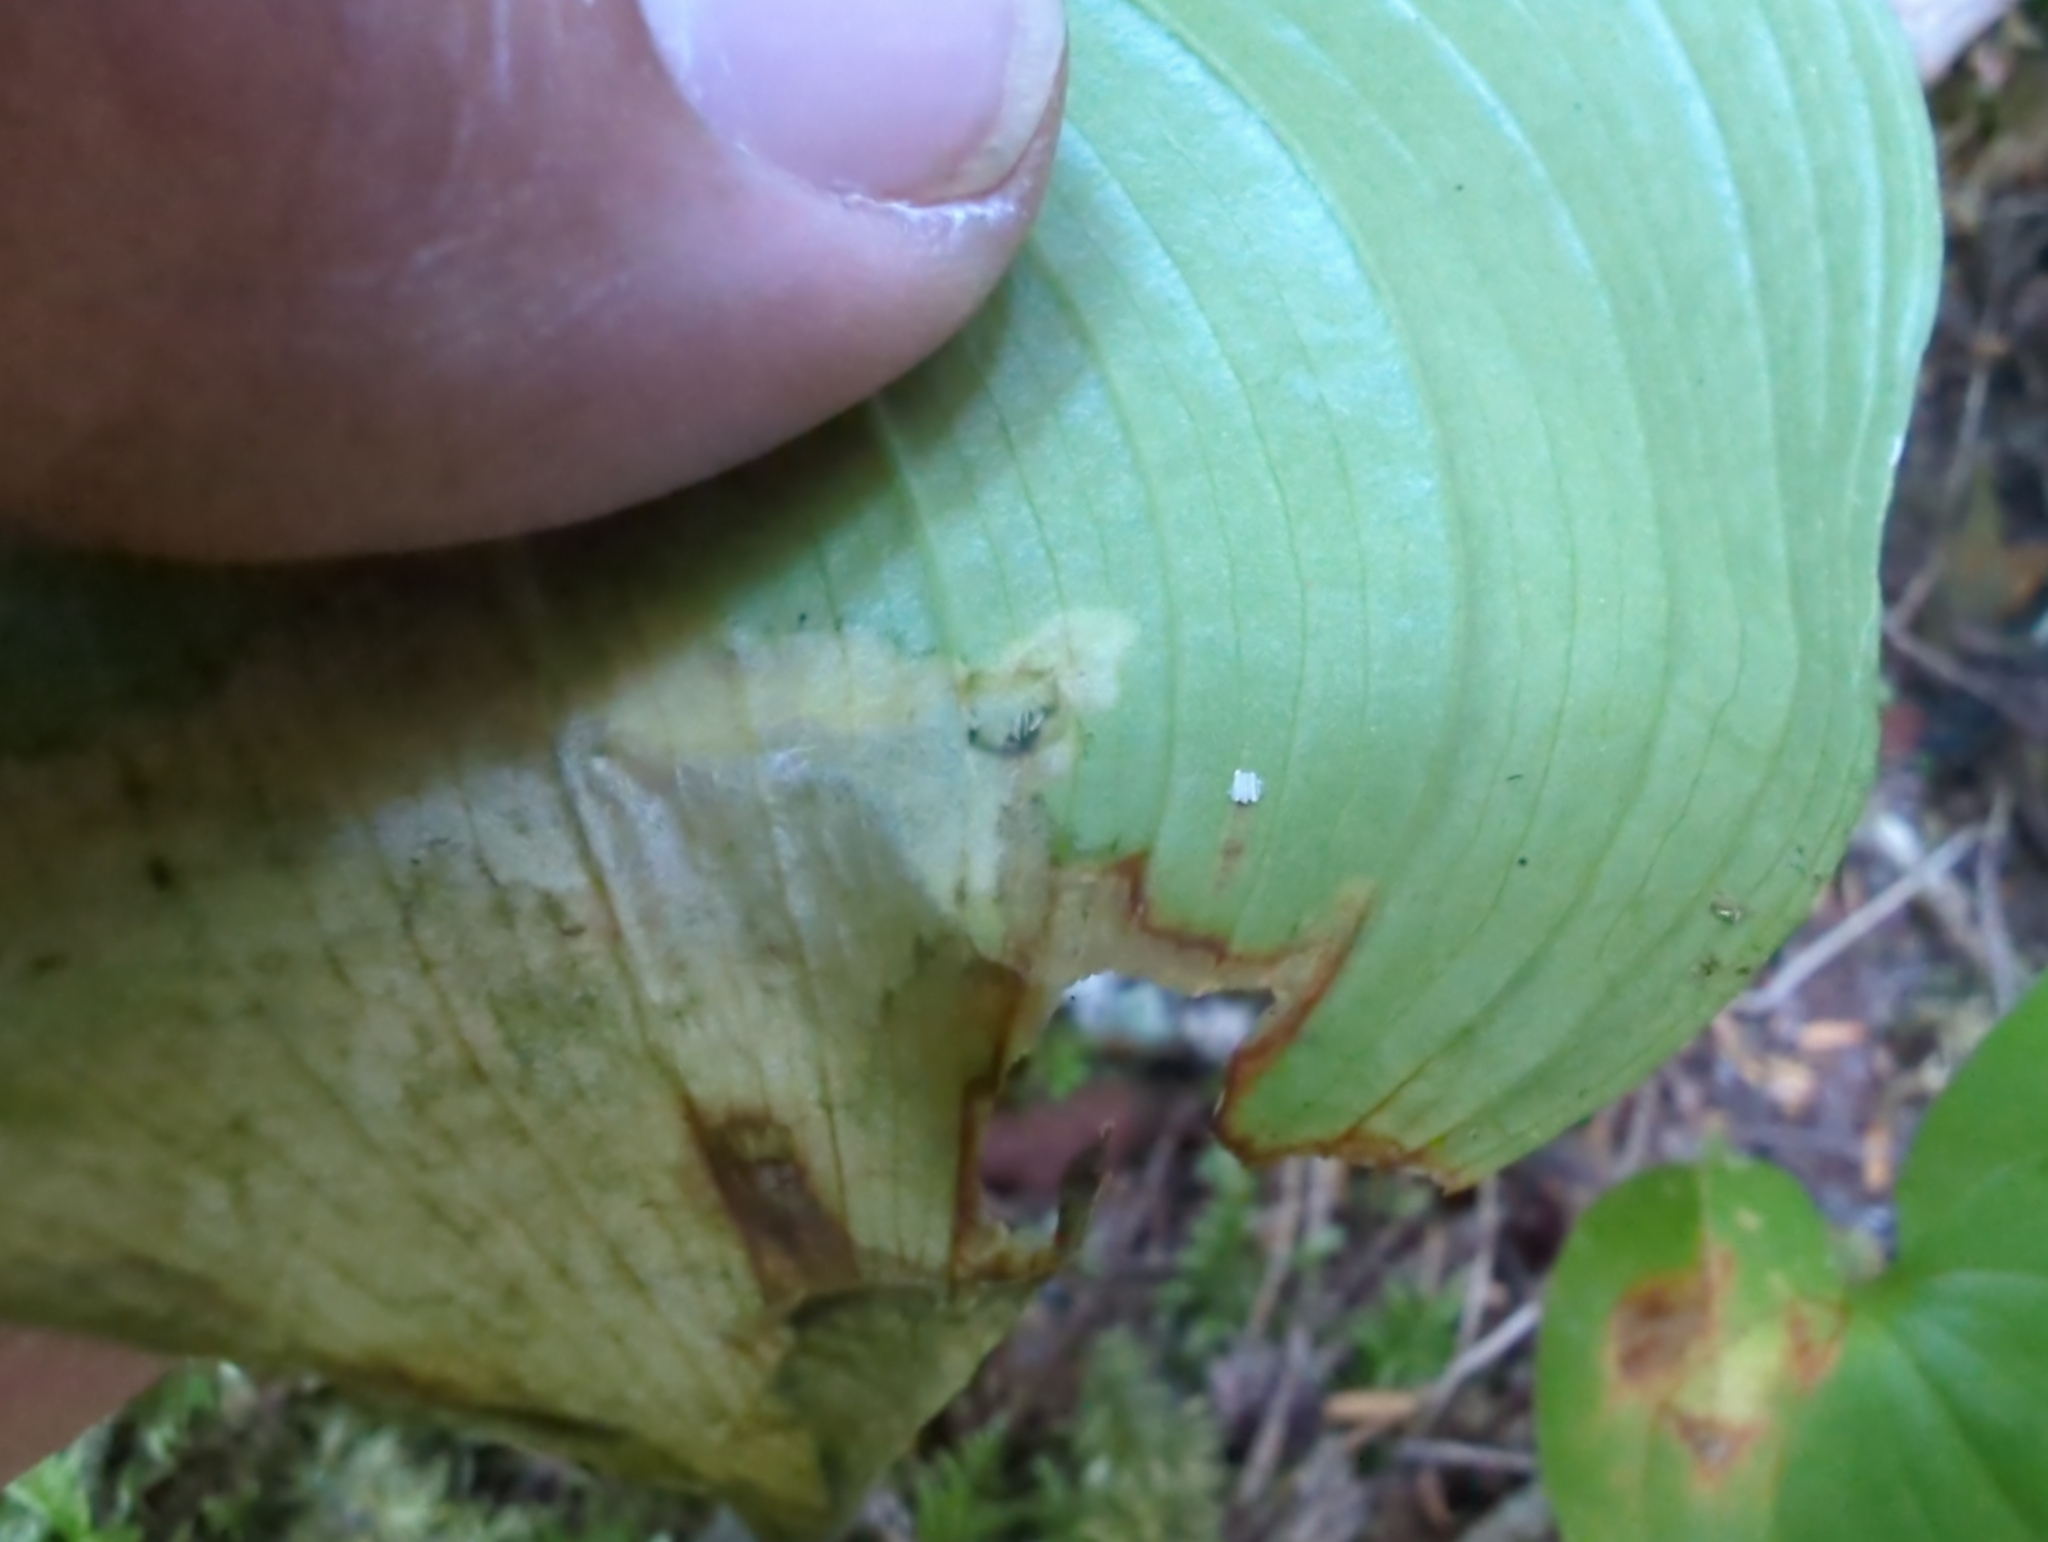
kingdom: Animalia
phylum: Arthropoda
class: Insecta
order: Diptera
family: Scathophagidae
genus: Leptopa
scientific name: Leptopa
